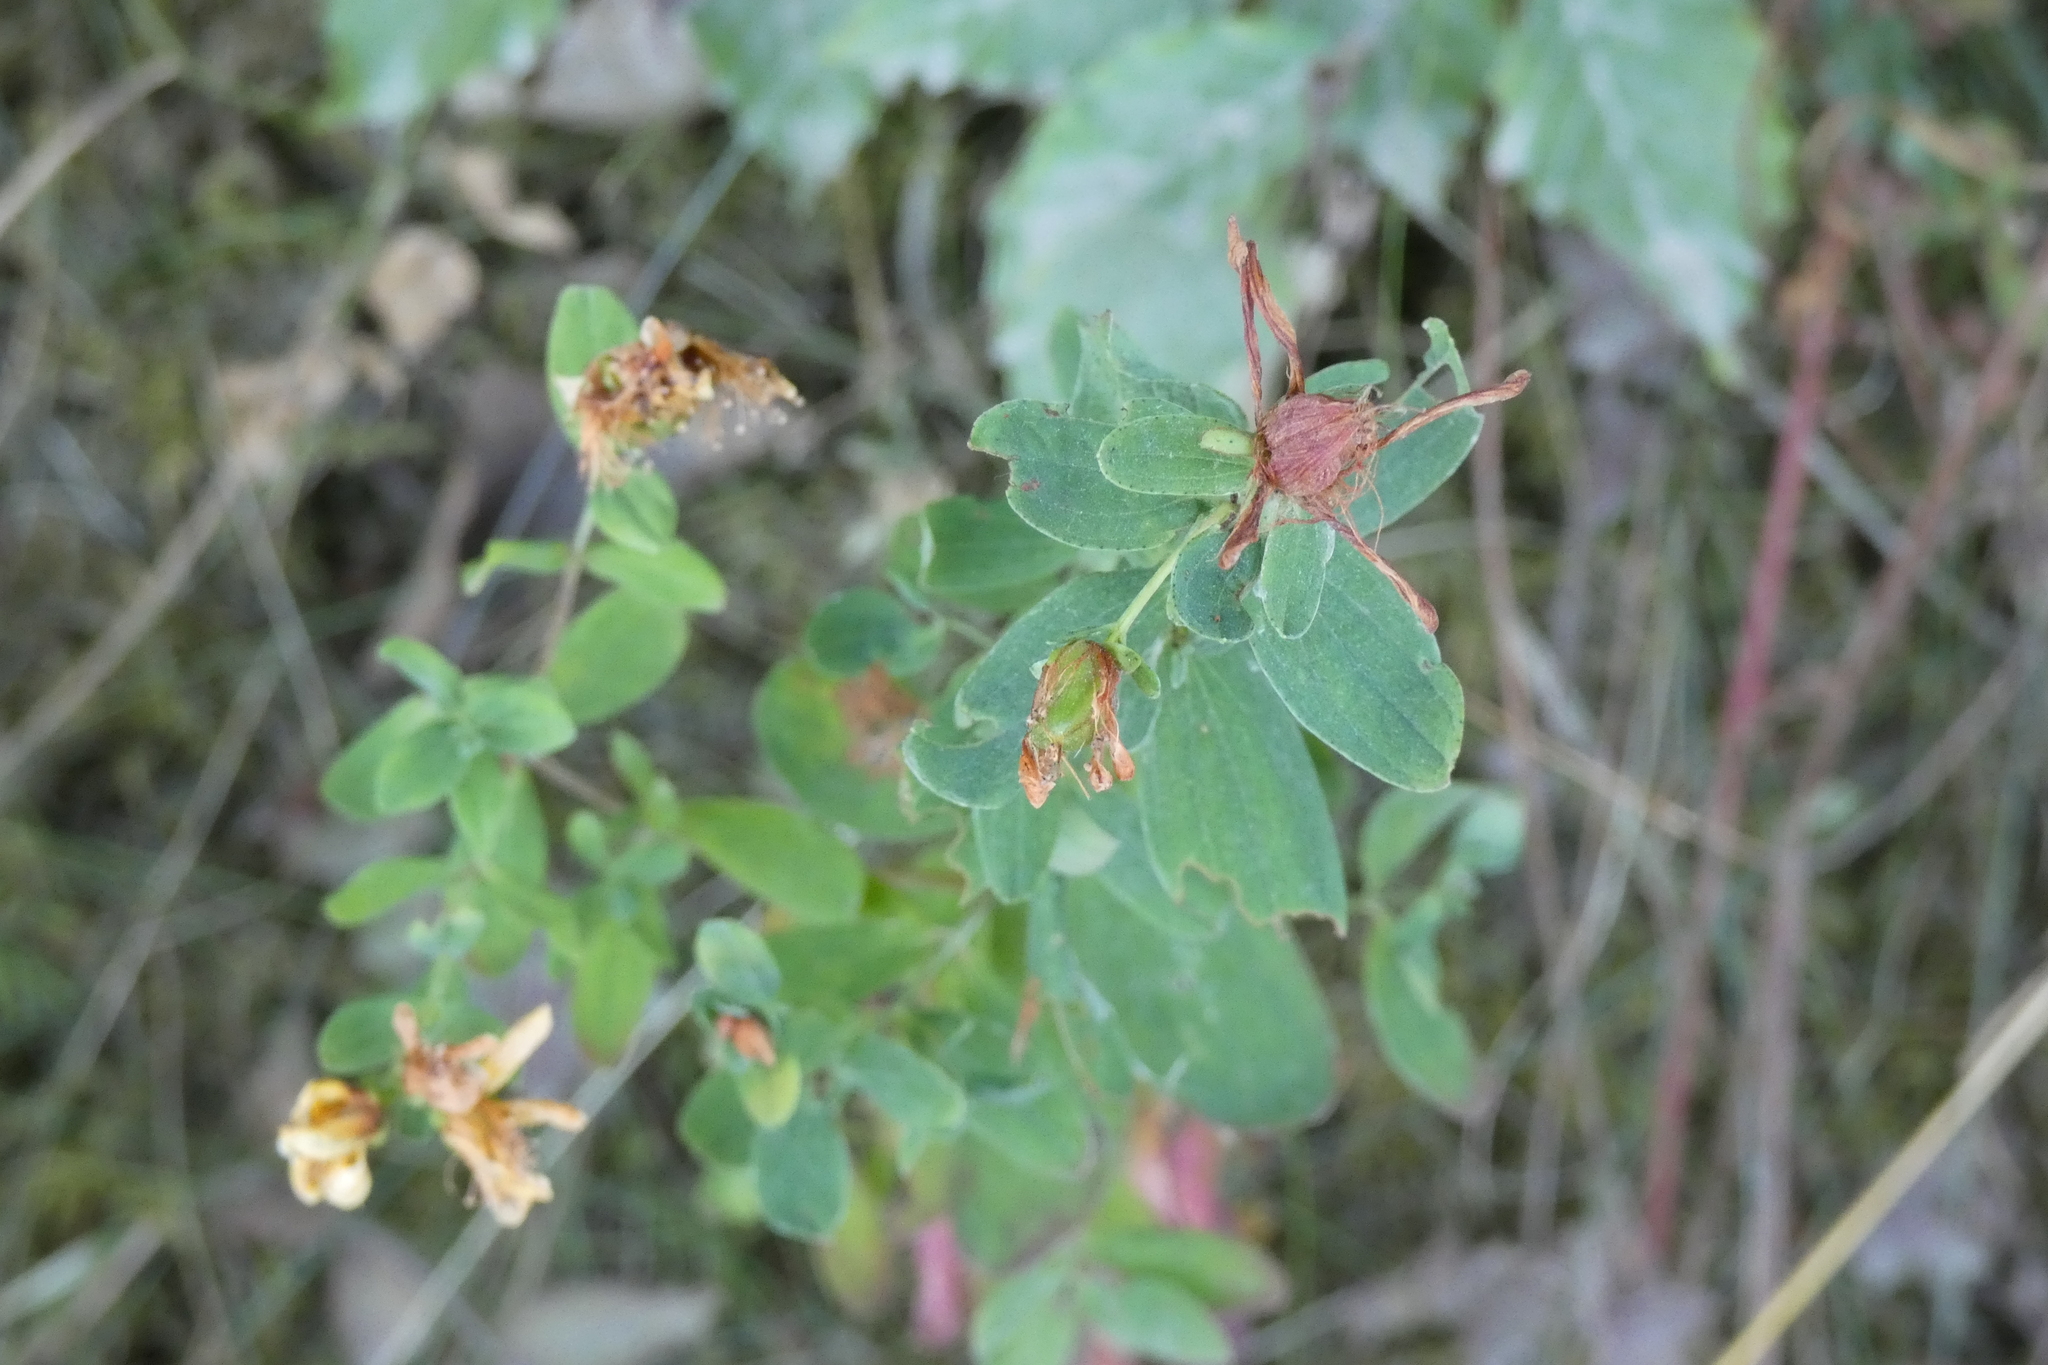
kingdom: Plantae
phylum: Tracheophyta
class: Magnoliopsida
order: Malpighiales
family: Hypericaceae
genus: Hypericum
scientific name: Hypericum maculatum
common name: Imperforate st. john's-wort
